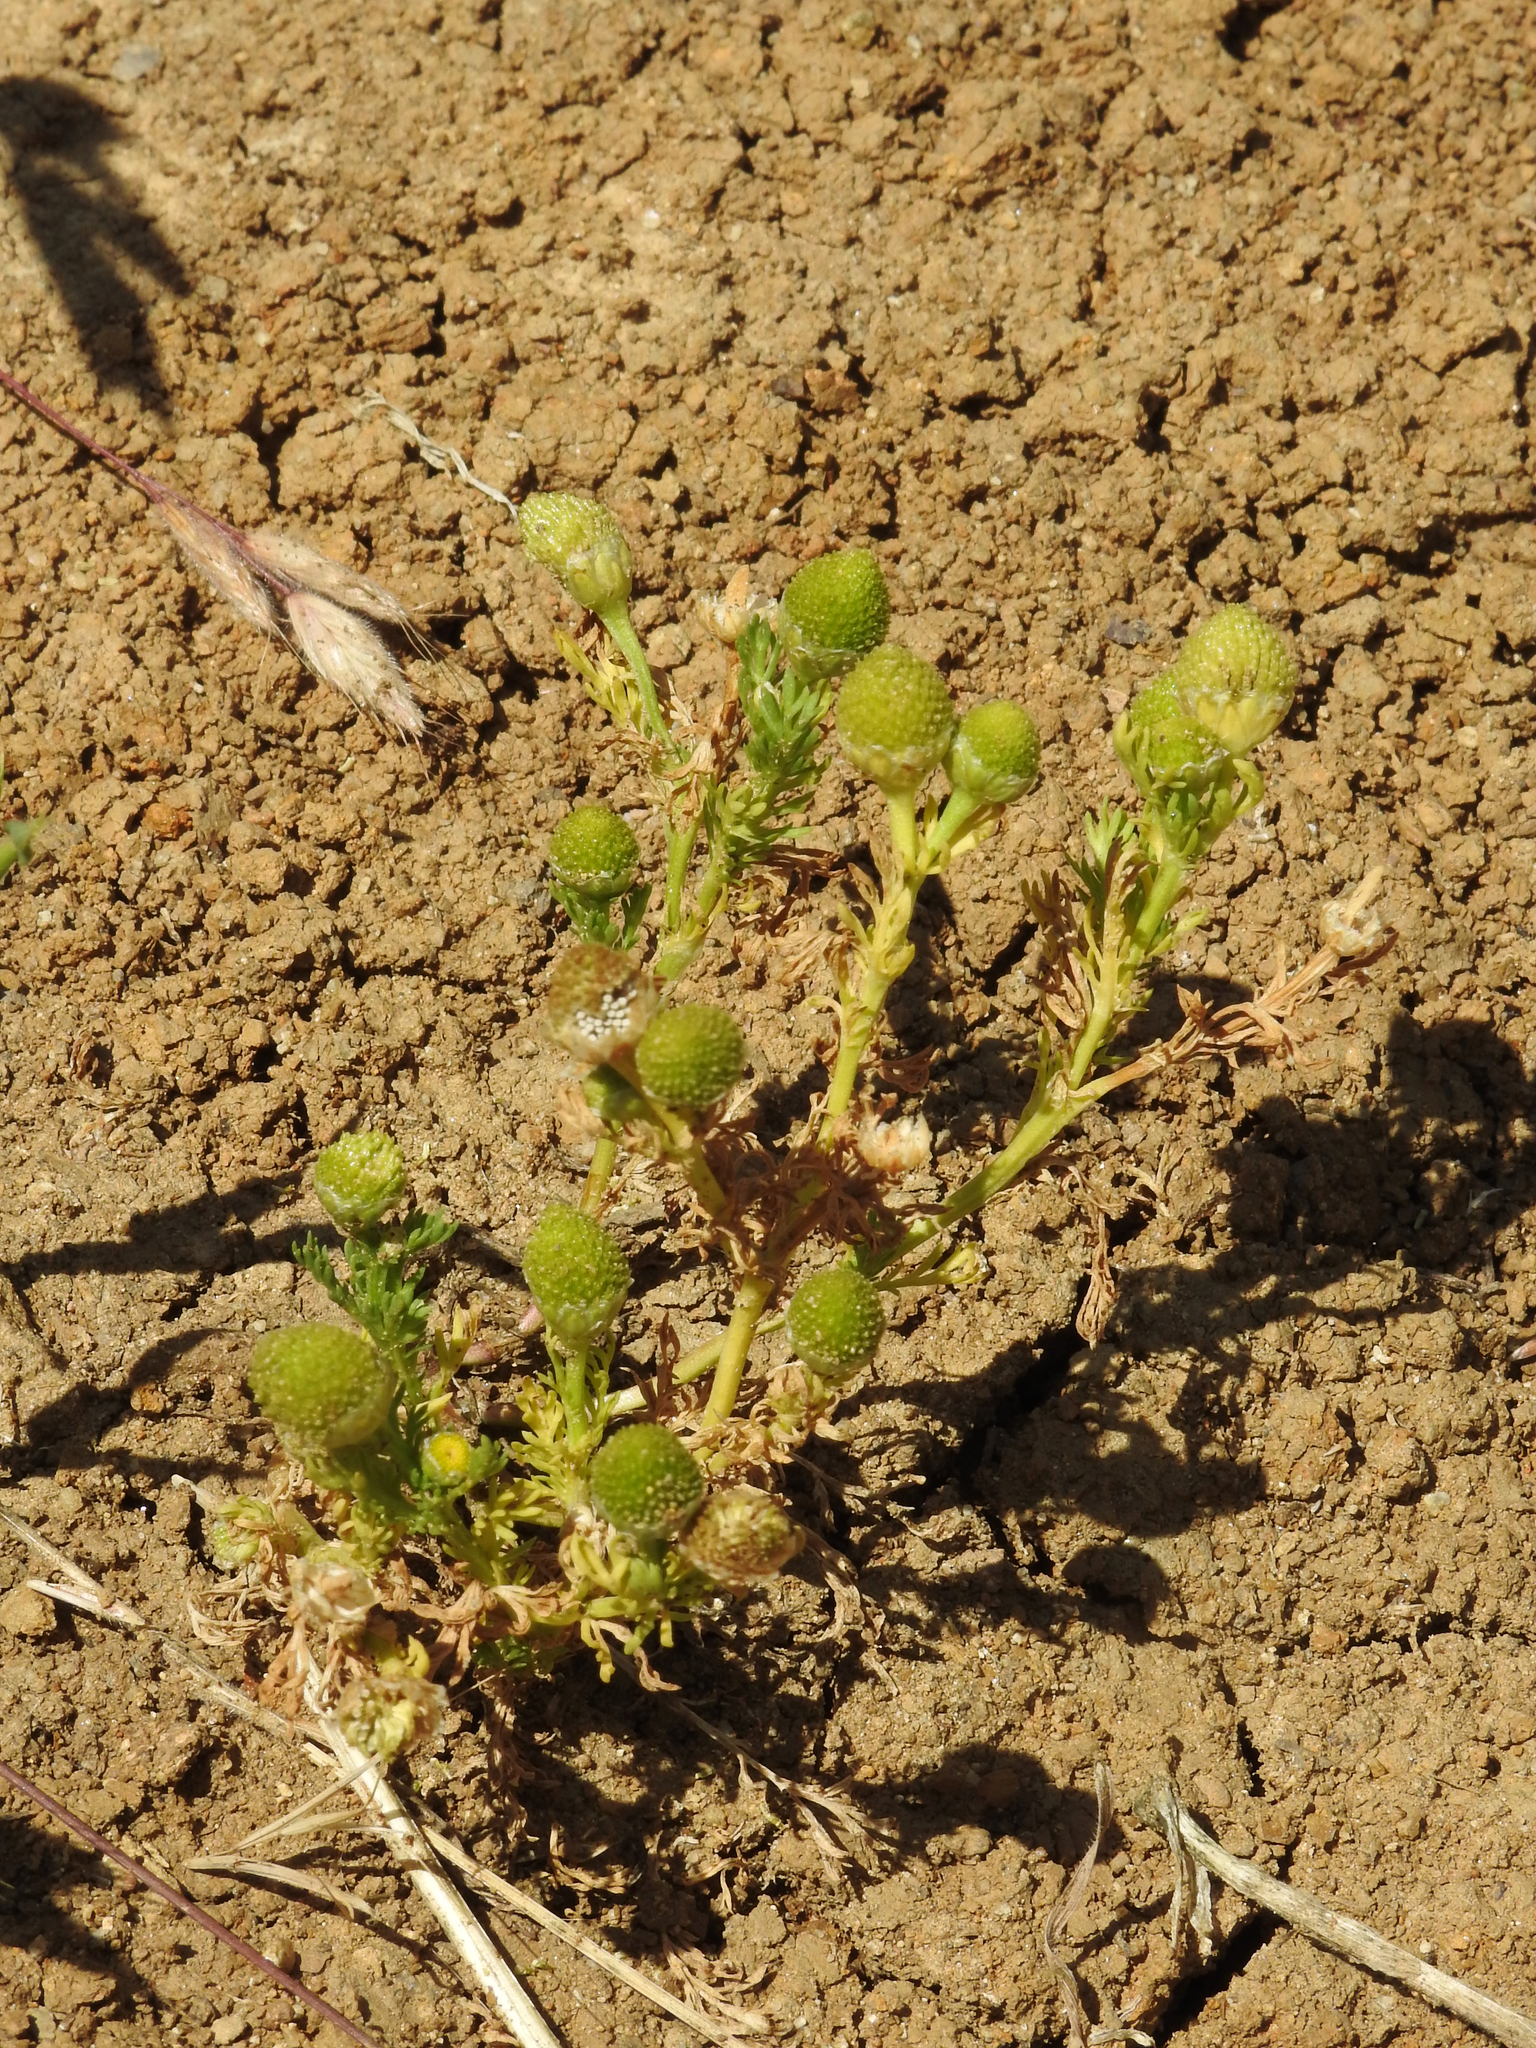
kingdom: Plantae
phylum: Tracheophyta
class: Magnoliopsida
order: Asterales
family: Asteraceae
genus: Matricaria
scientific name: Matricaria discoidea
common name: Disc mayweed
